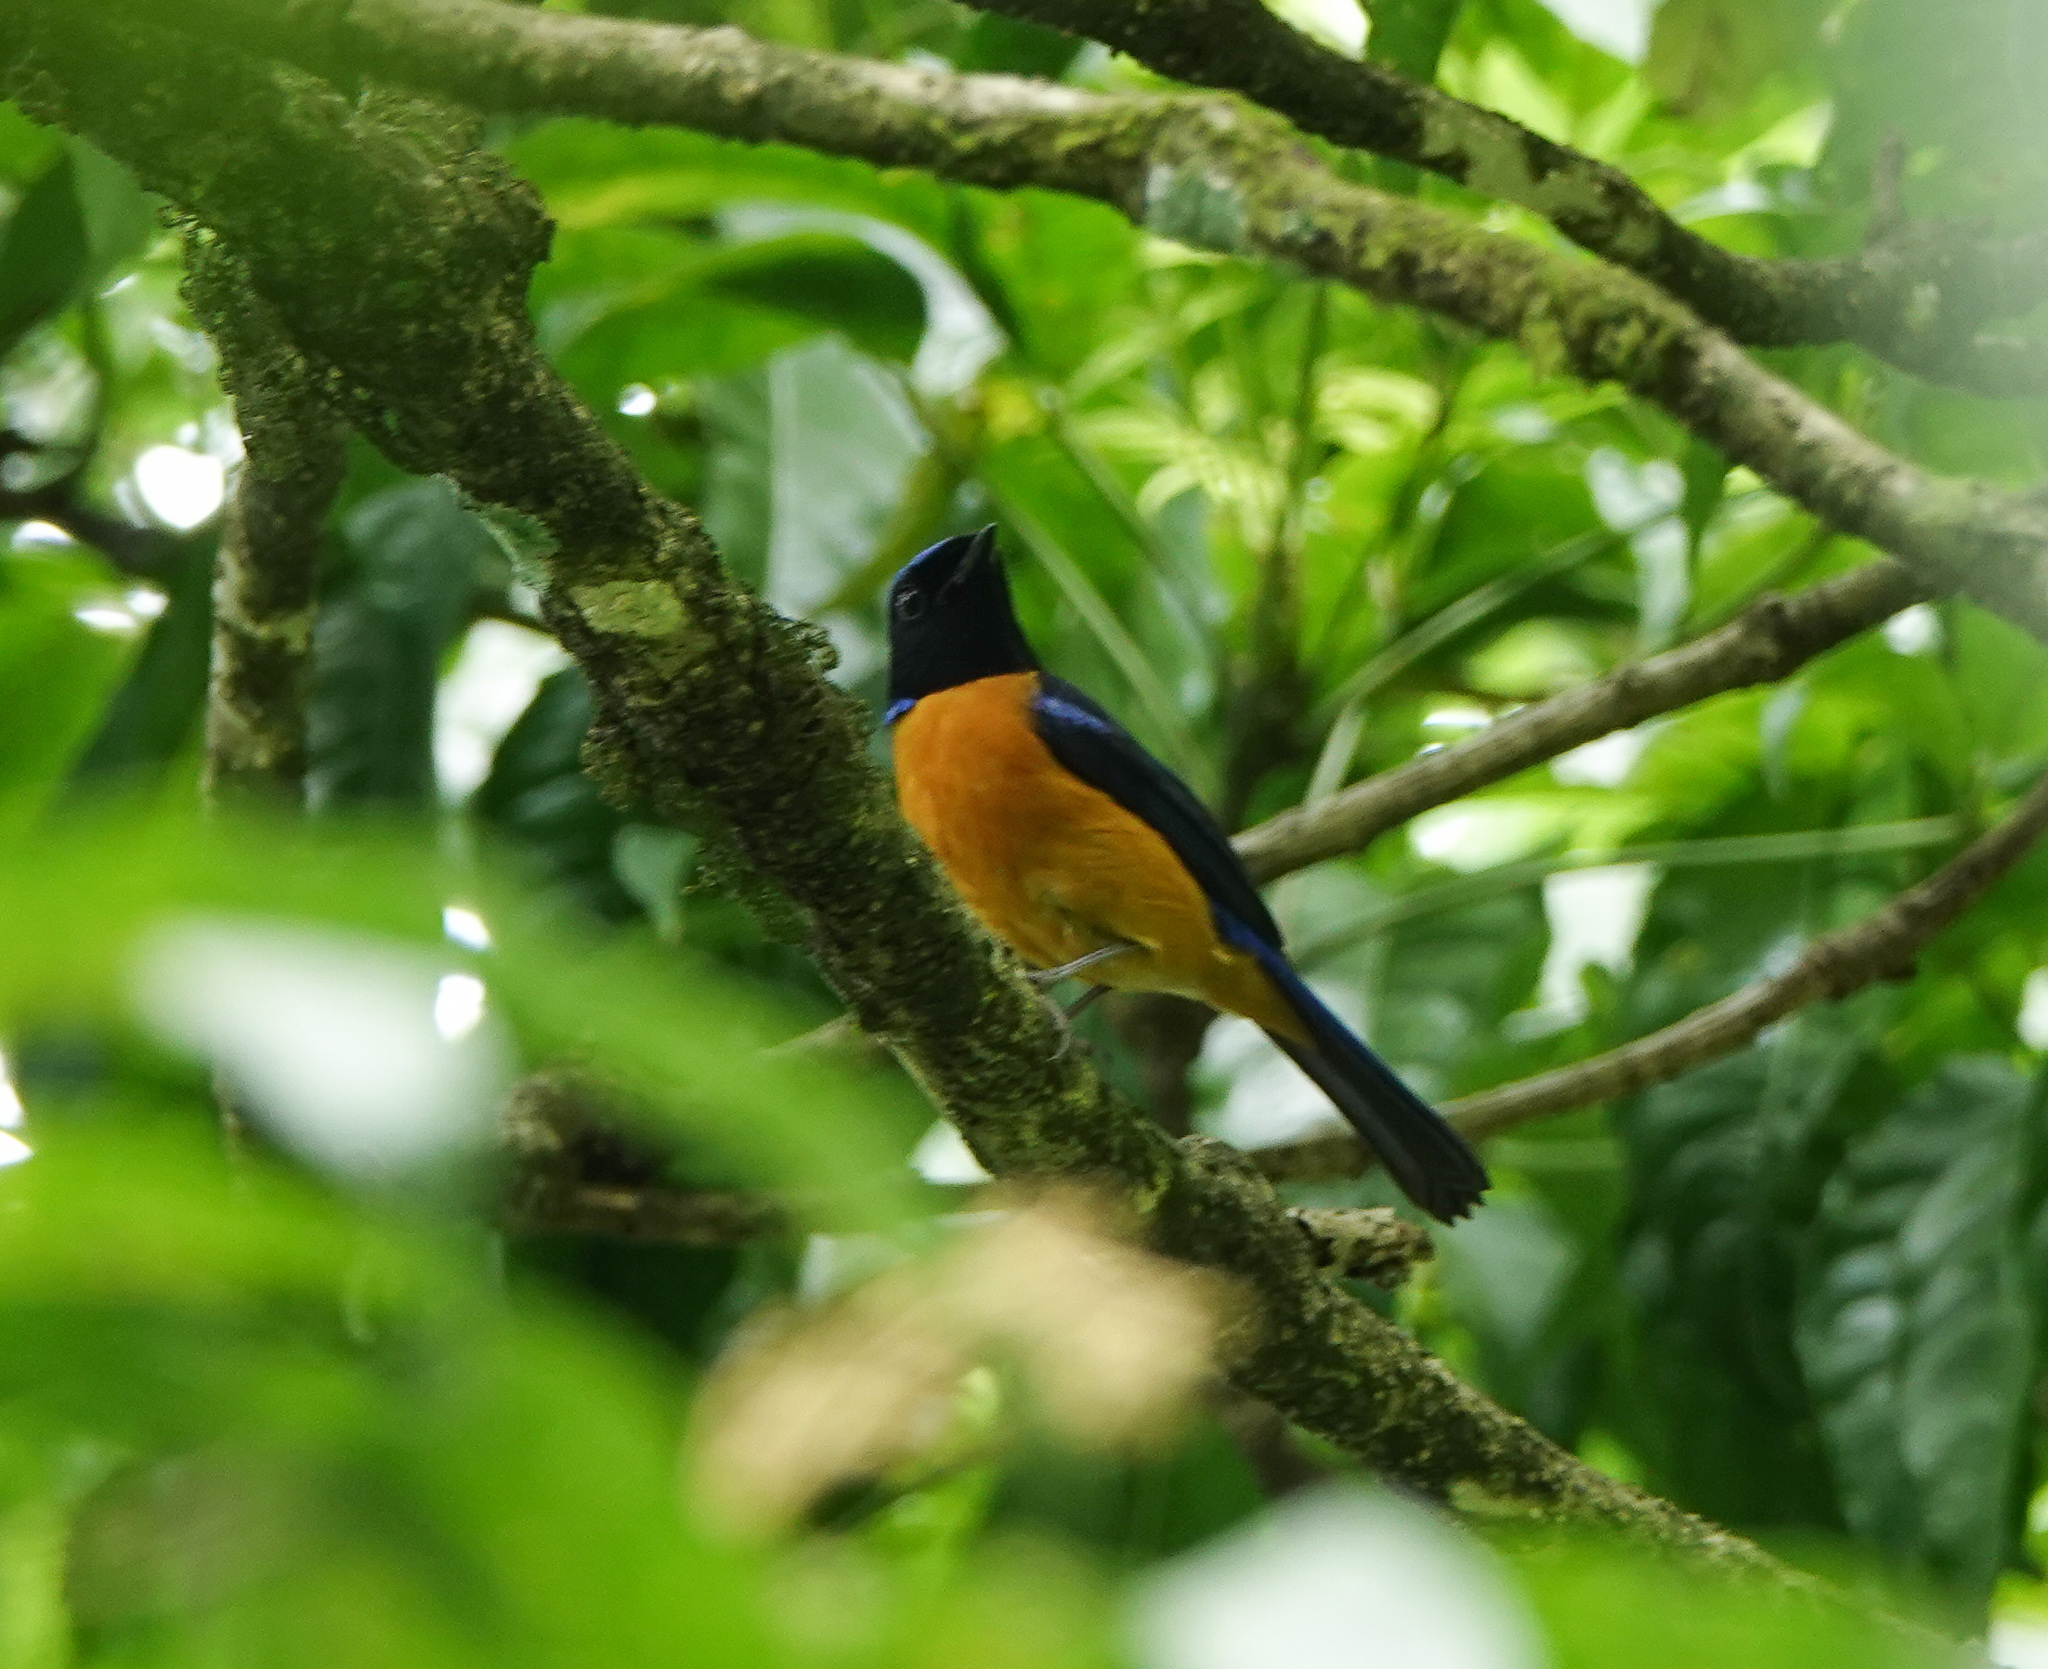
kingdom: Animalia
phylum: Chordata
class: Aves
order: Passeriformes
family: Muscicapidae
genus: Niltava
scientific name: Niltava sundara
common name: Rufous-bellied niltava
